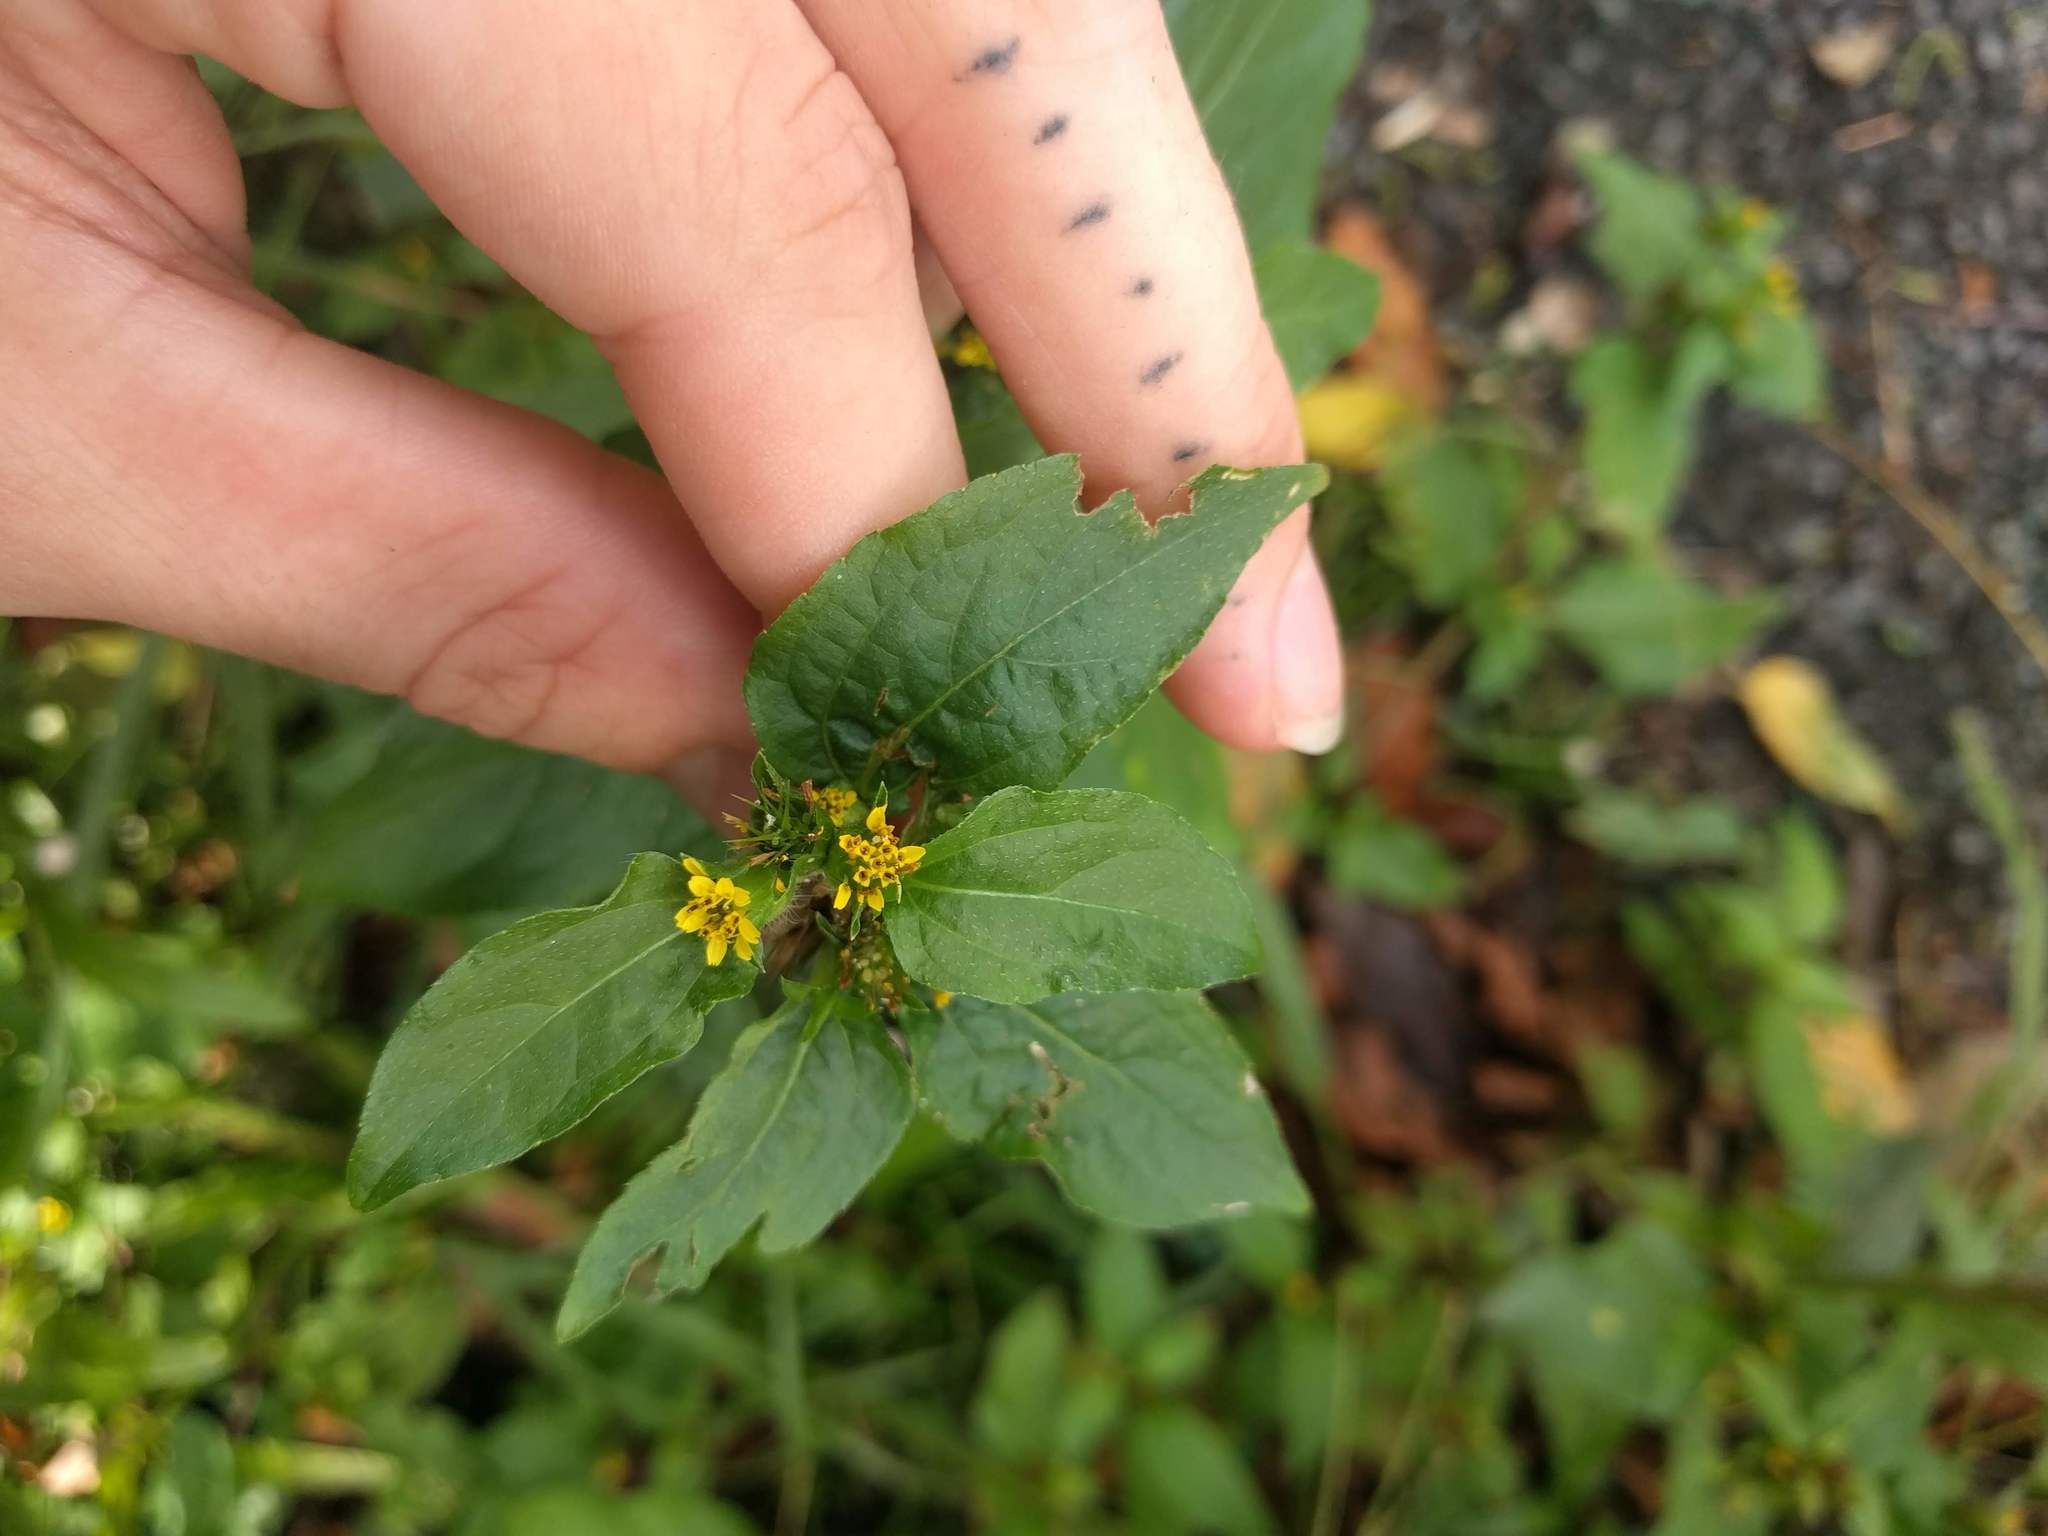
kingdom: Plantae
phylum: Tracheophyta
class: Magnoliopsida
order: Asterales
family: Asteraceae
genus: Synedrella
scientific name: Synedrella nodiflora
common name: Nodeweed
